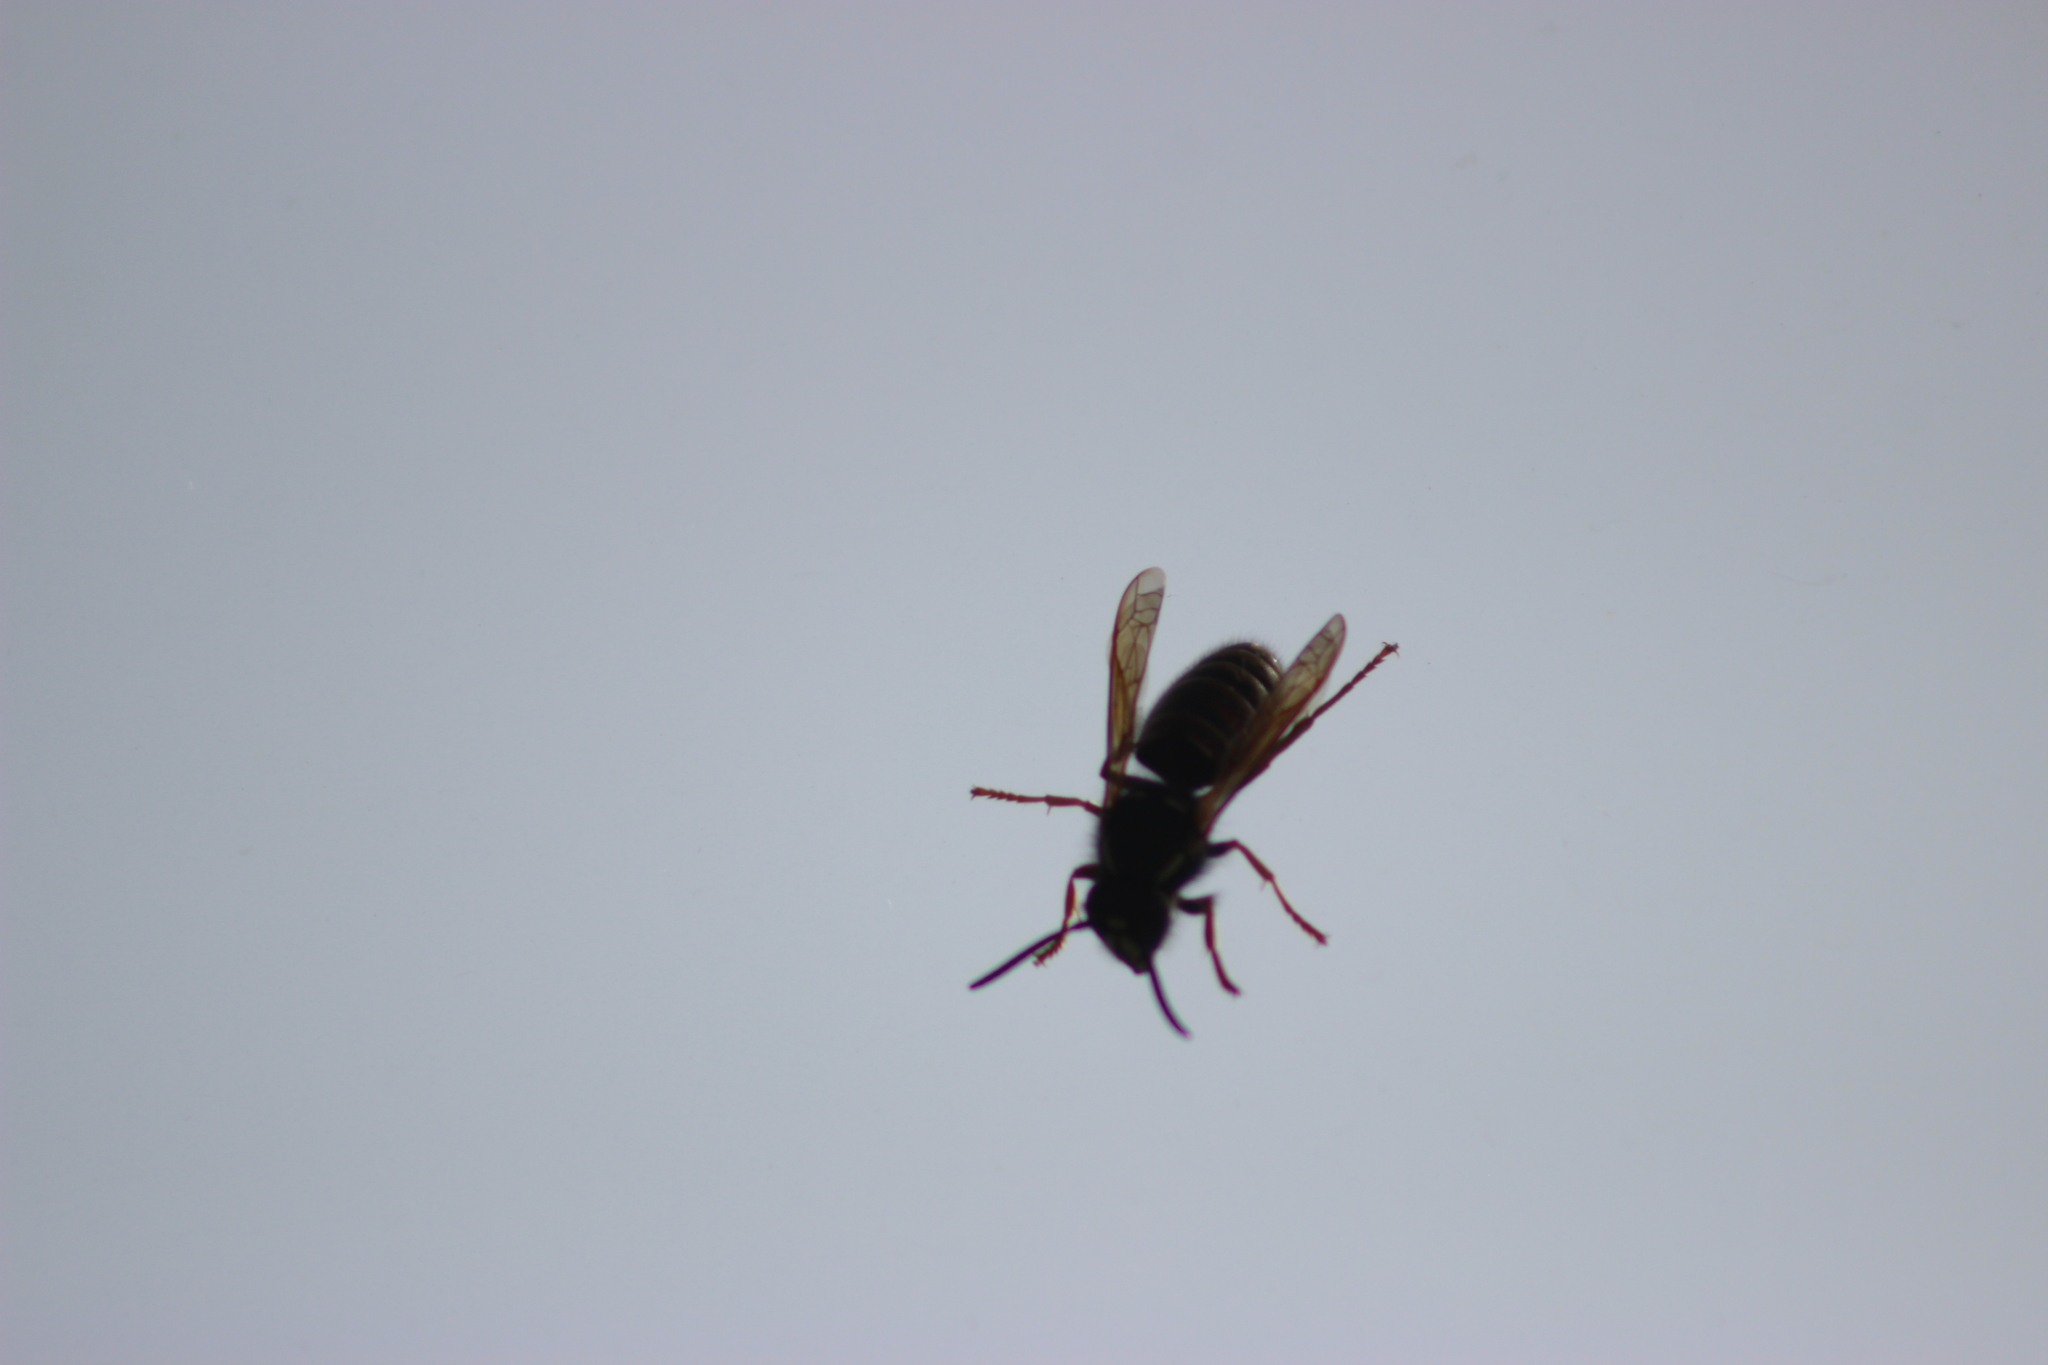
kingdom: Animalia
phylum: Arthropoda
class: Insecta
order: Hymenoptera
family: Vespidae
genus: Vespula
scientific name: Vespula rufa
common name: Red wasp
